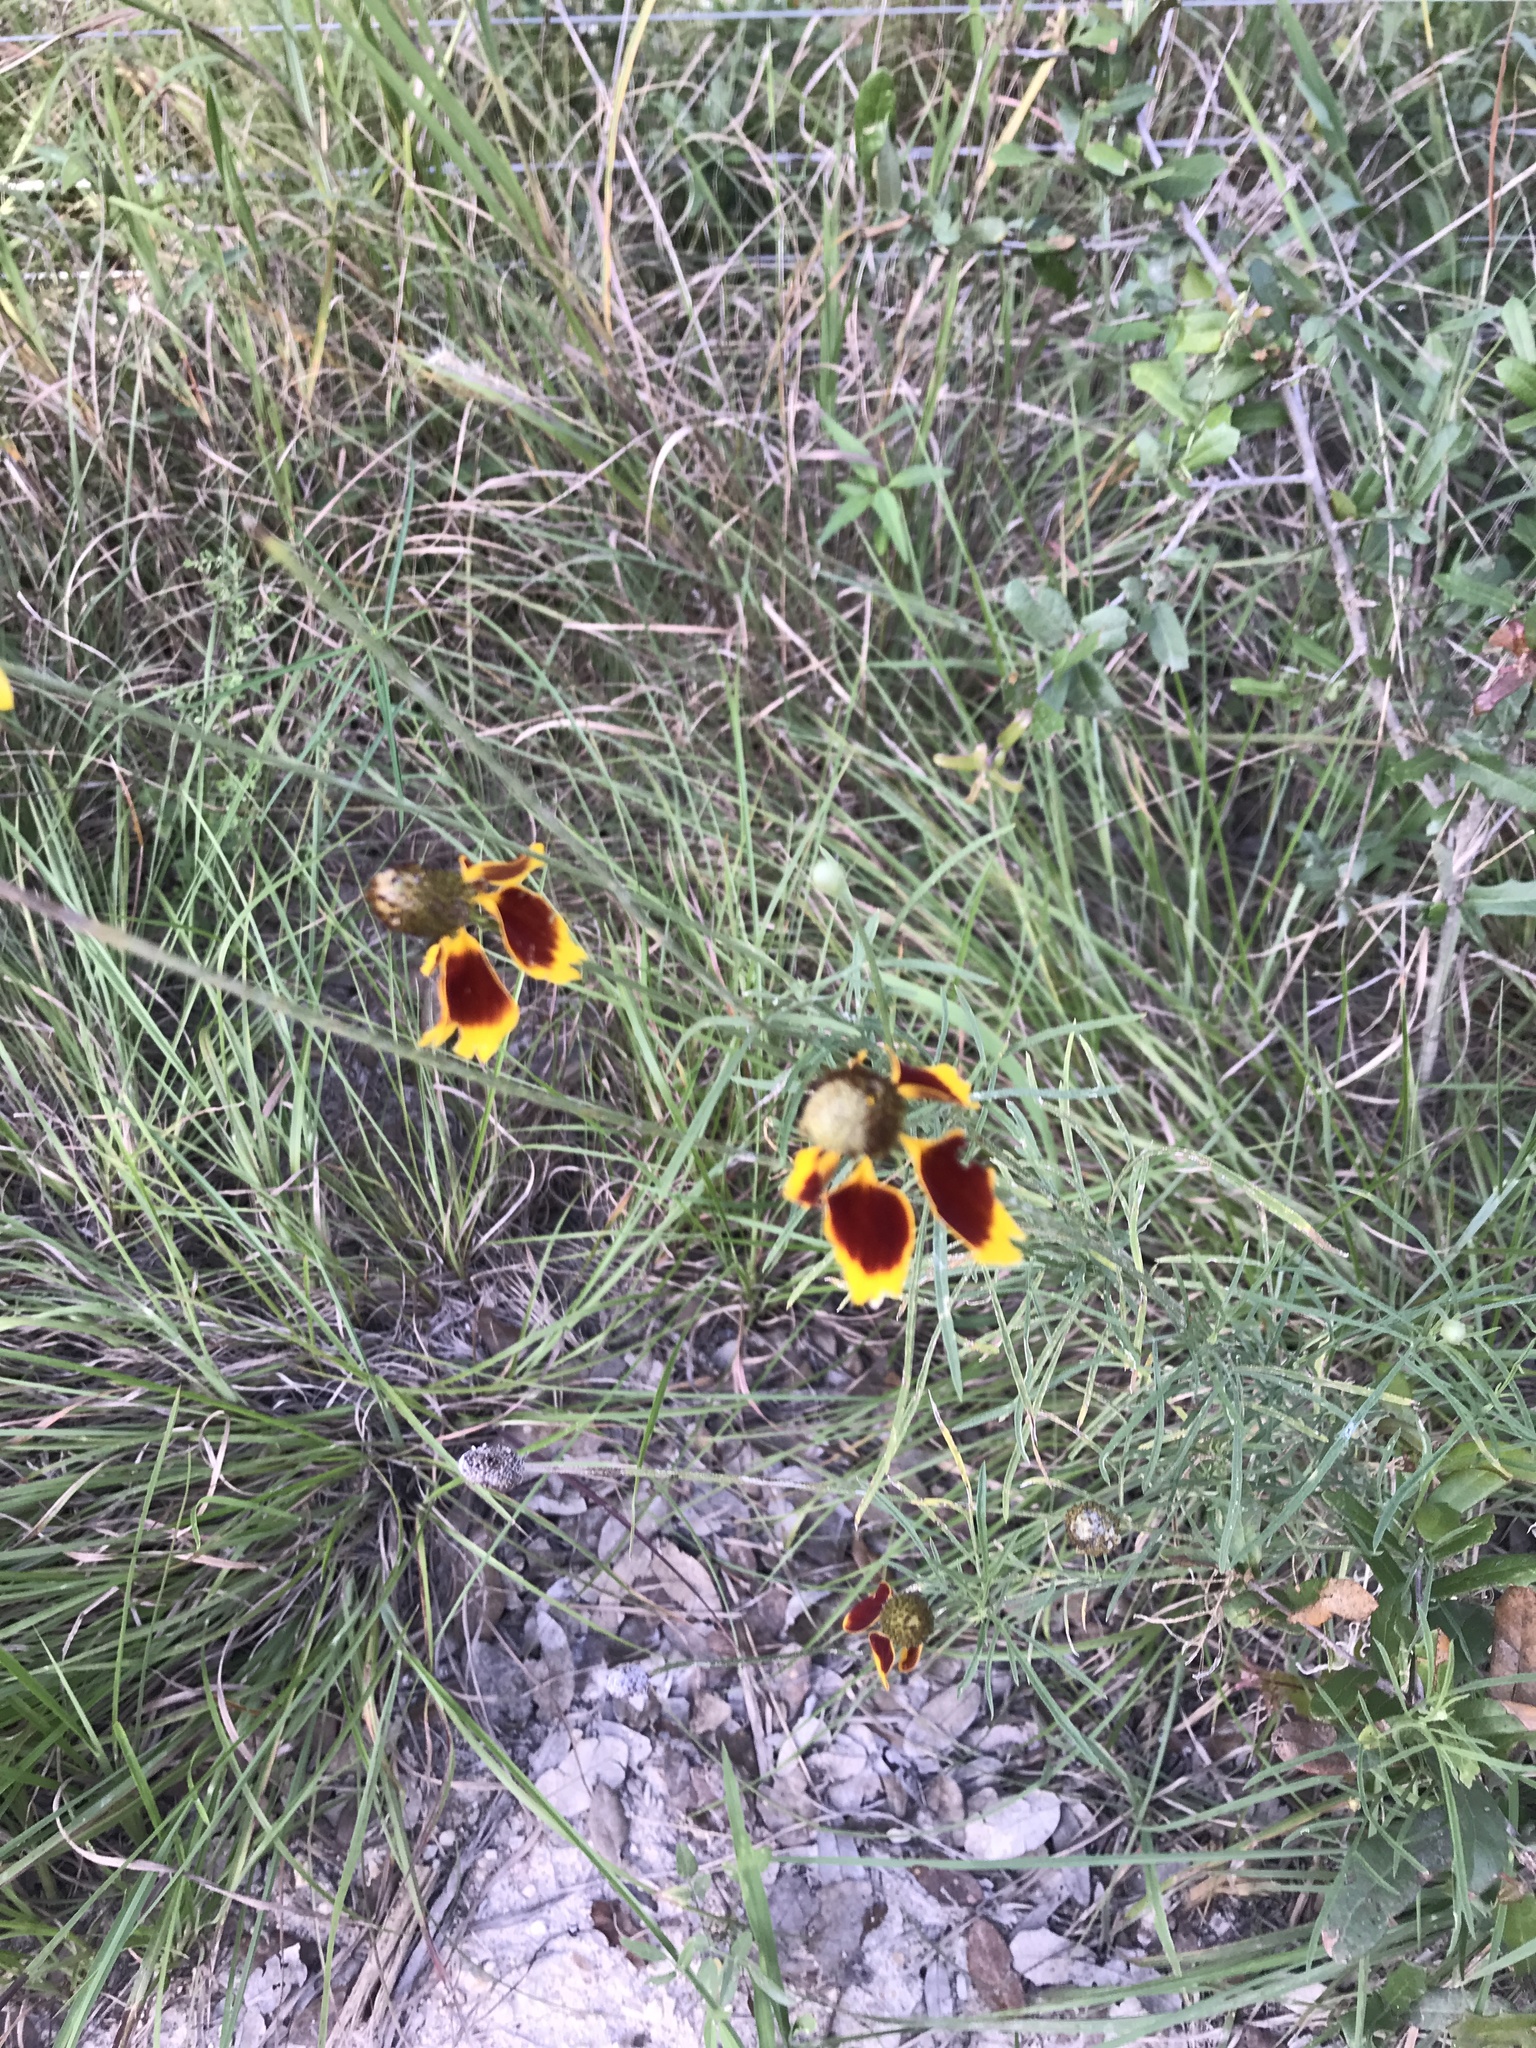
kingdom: Plantae
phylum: Tracheophyta
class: Magnoliopsida
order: Asterales
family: Asteraceae
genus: Ratibida
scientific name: Ratibida columnifera
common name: Prairie coneflower
